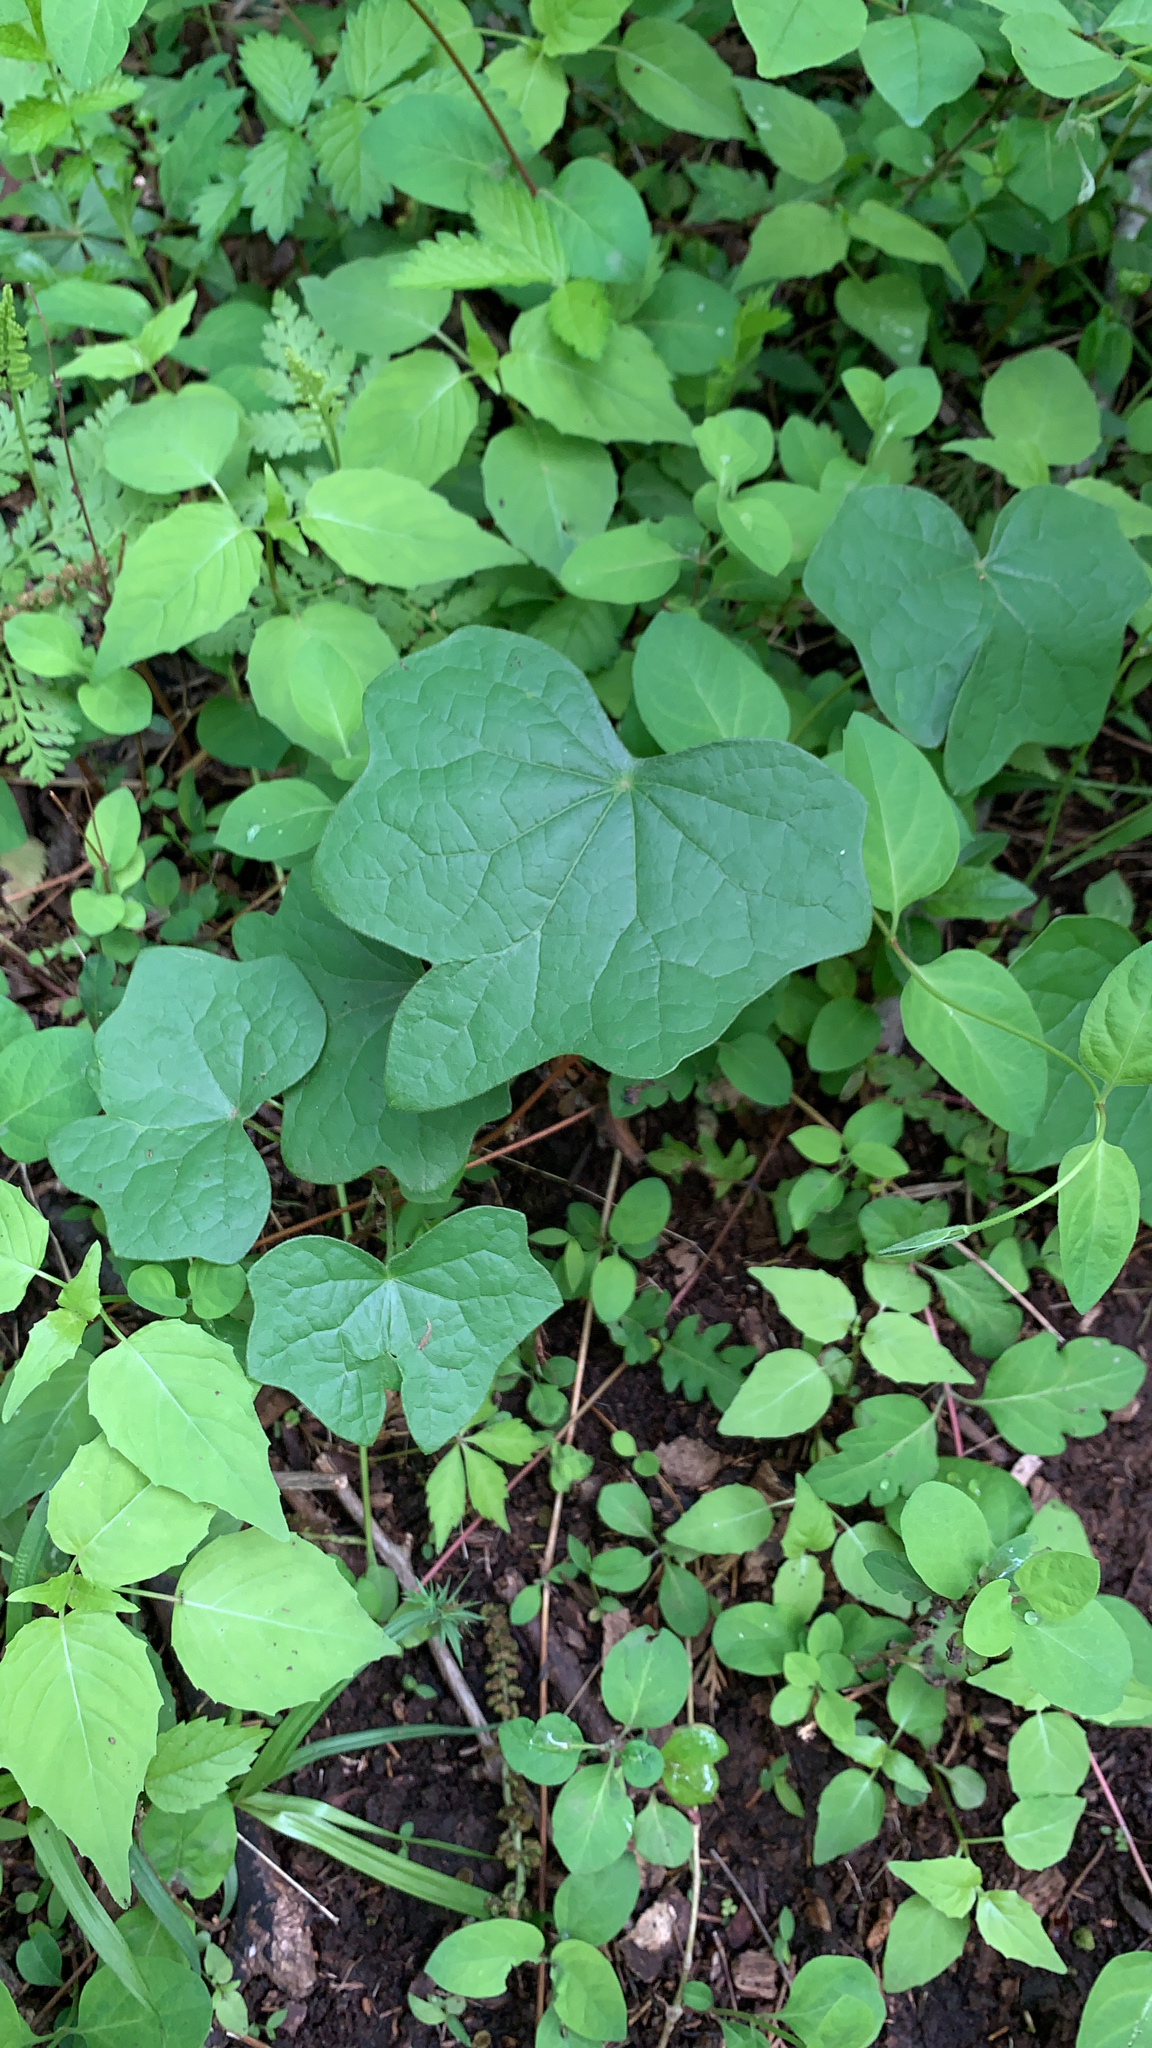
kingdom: Plantae
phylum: Tracheophyta
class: Magnoliopsida
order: Ranunculales
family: Menispermaceae
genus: Menispermum
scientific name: Menispermum canadense
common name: Moonseed
